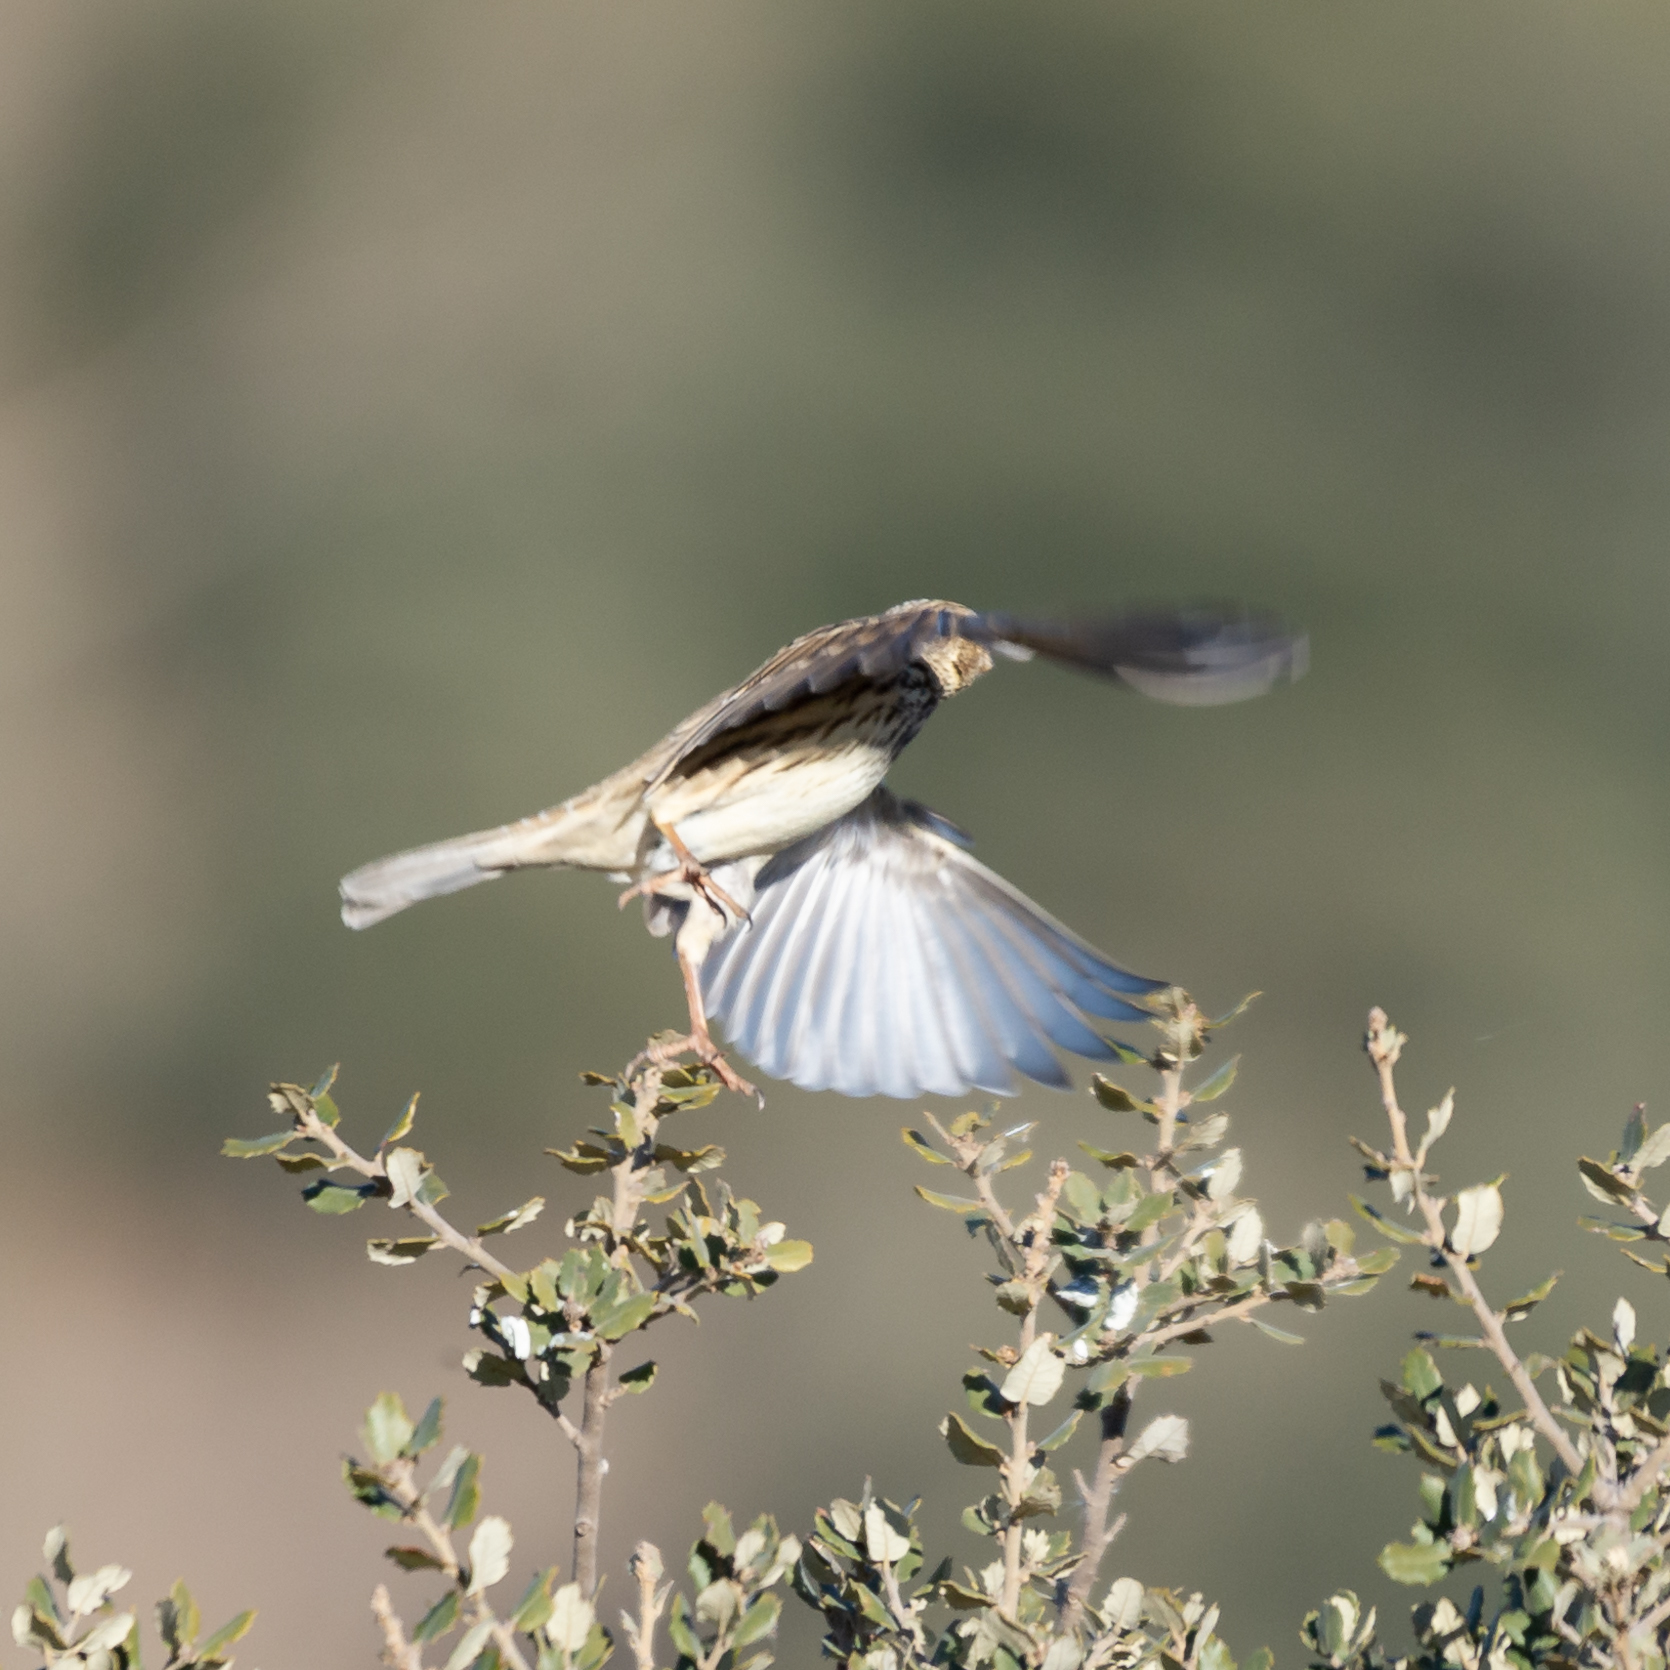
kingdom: Animalia
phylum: Chordata
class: Aves
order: Passeriformes
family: Emberizidae
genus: Emberiza
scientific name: Emberiza calandra
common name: Corn bunting
